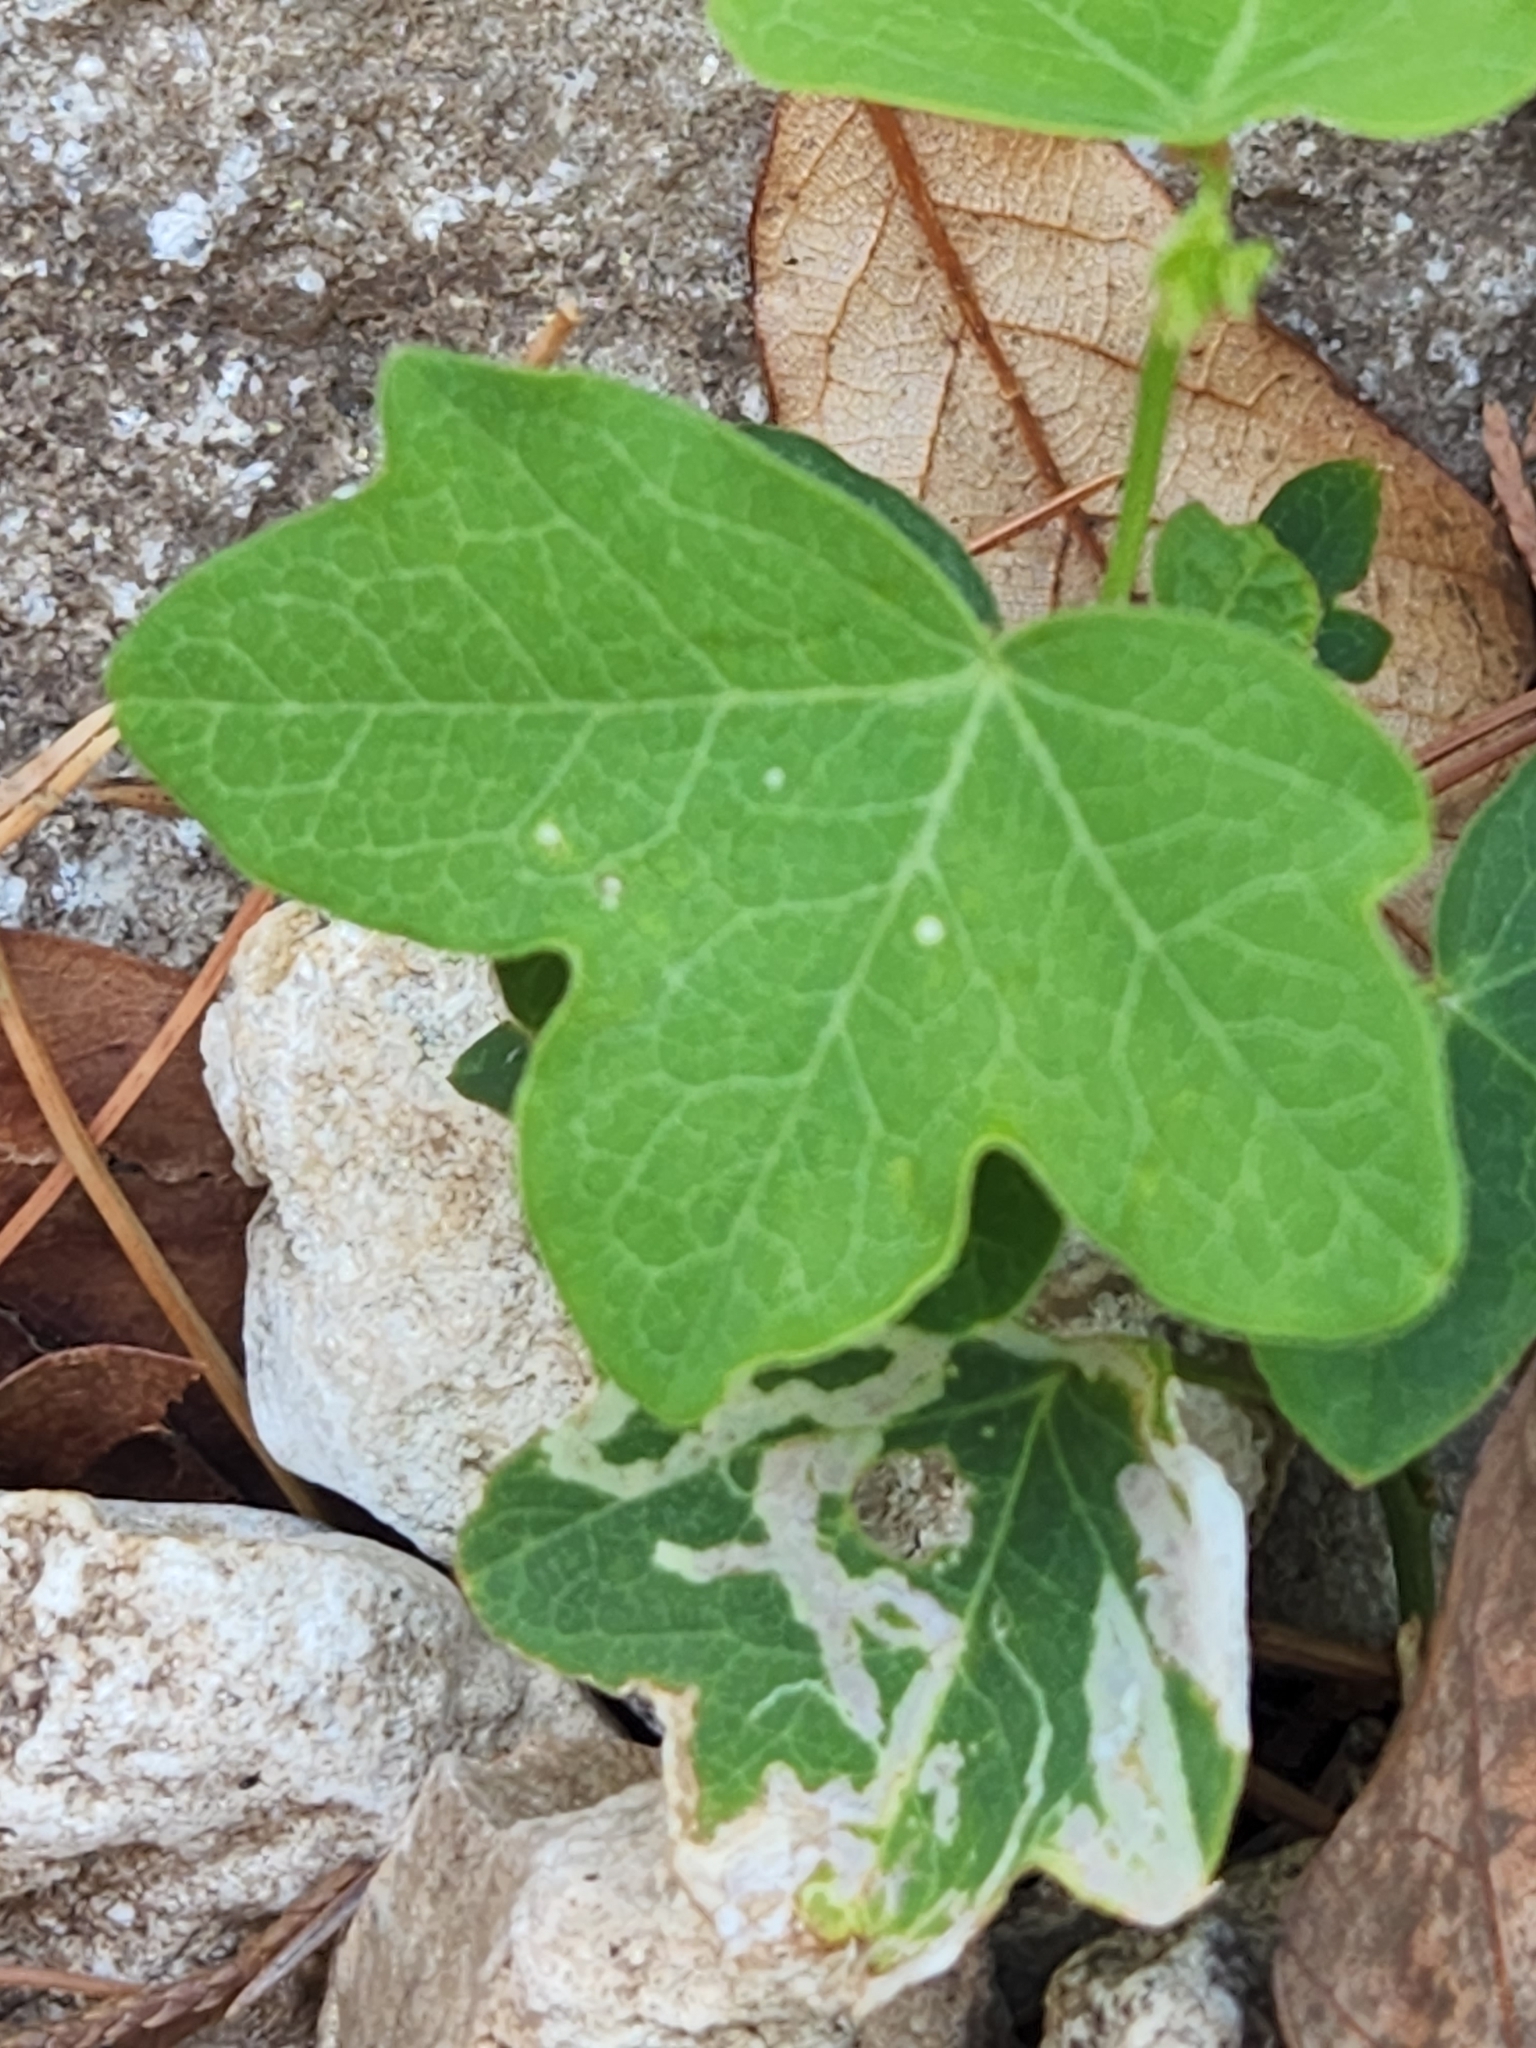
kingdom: Plantae
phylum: Tracheophyta
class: Magnoliopsida
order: Malpighiales
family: Passifloraceae
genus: Passiflora
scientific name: Passiflora affinis
